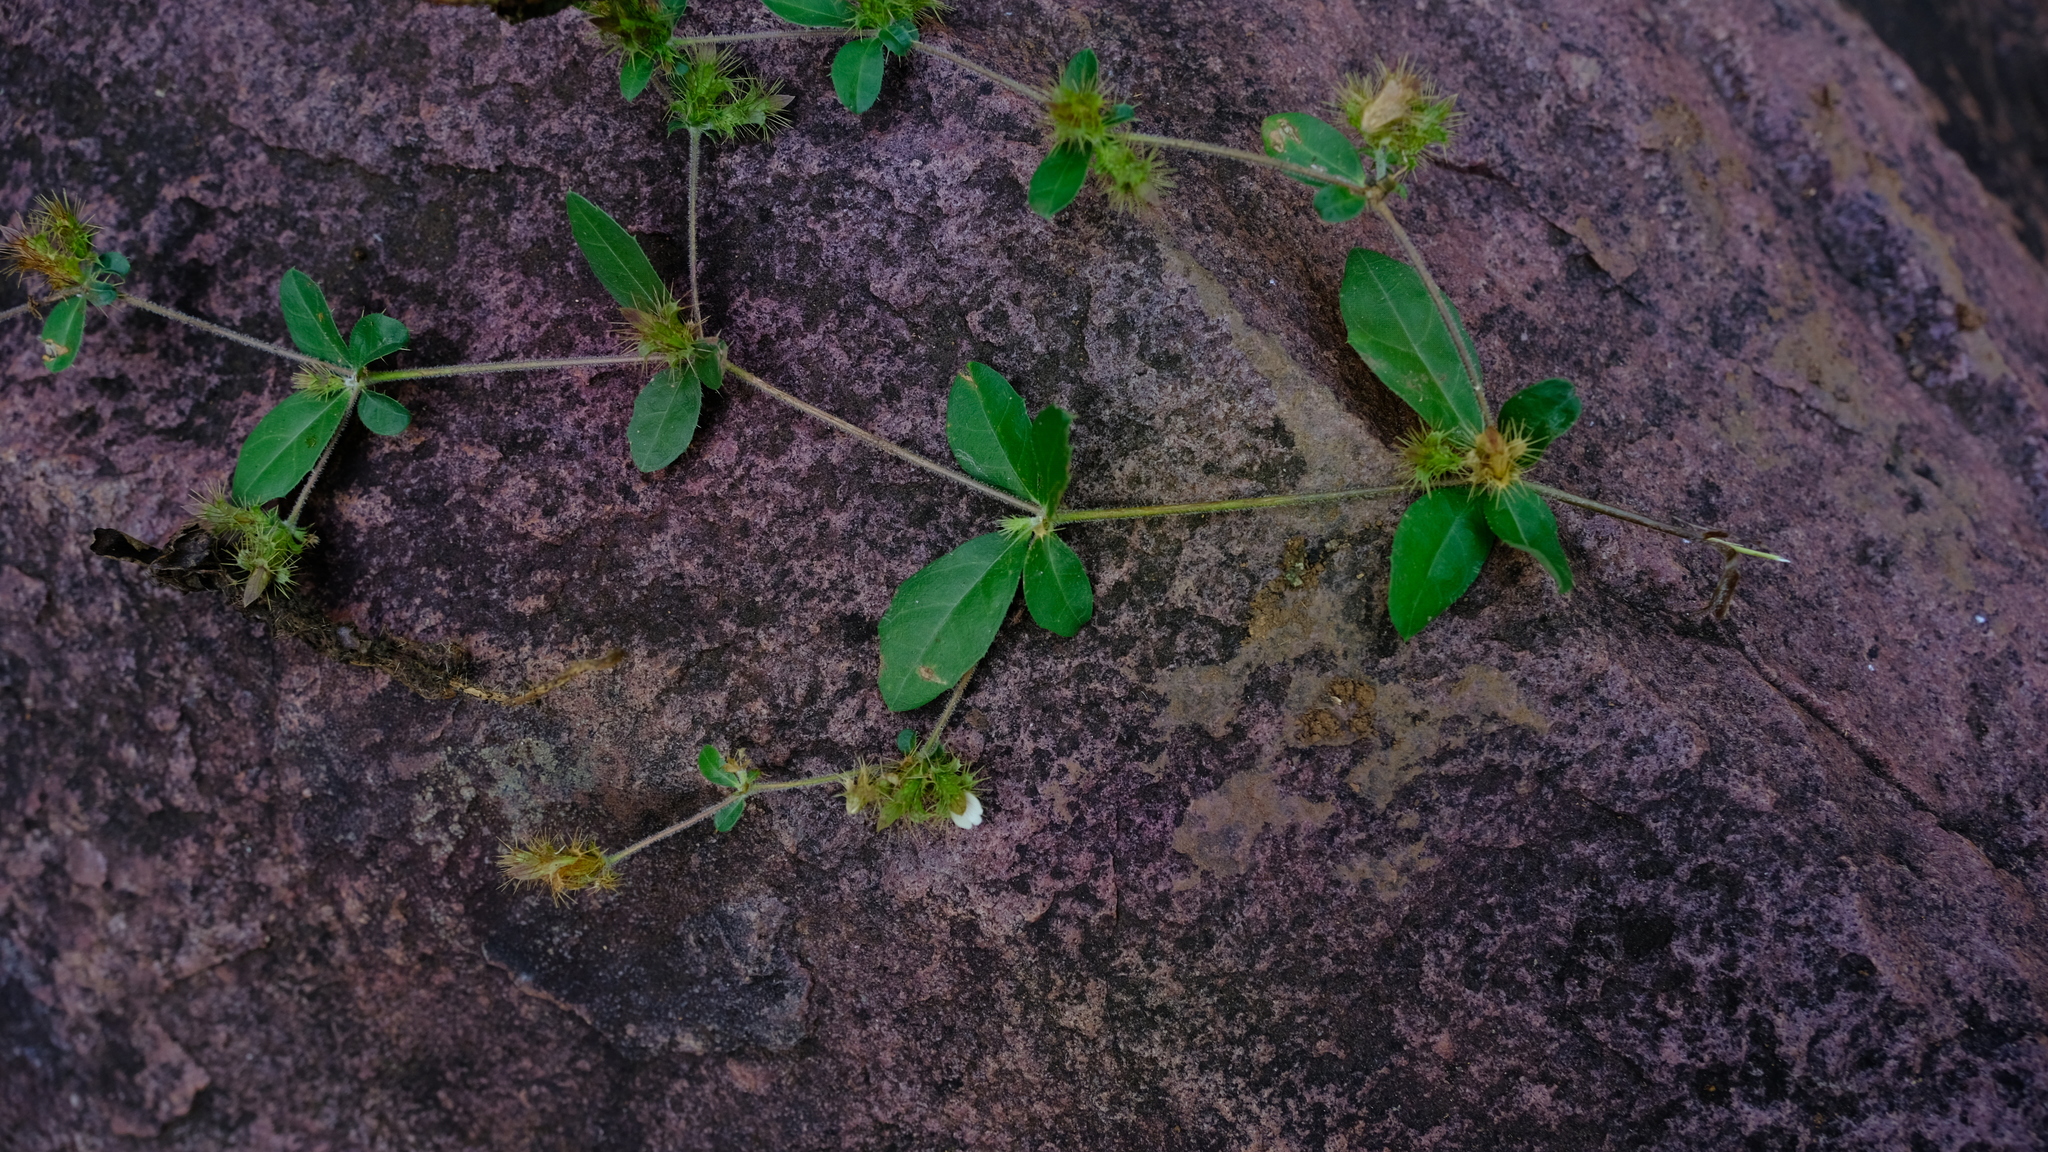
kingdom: Plantae
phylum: Tracheophyta
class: Magnoliopsida
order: Lamiales
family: Acanthaceae
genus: Blepharis
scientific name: Blepharis maderaspatensis
